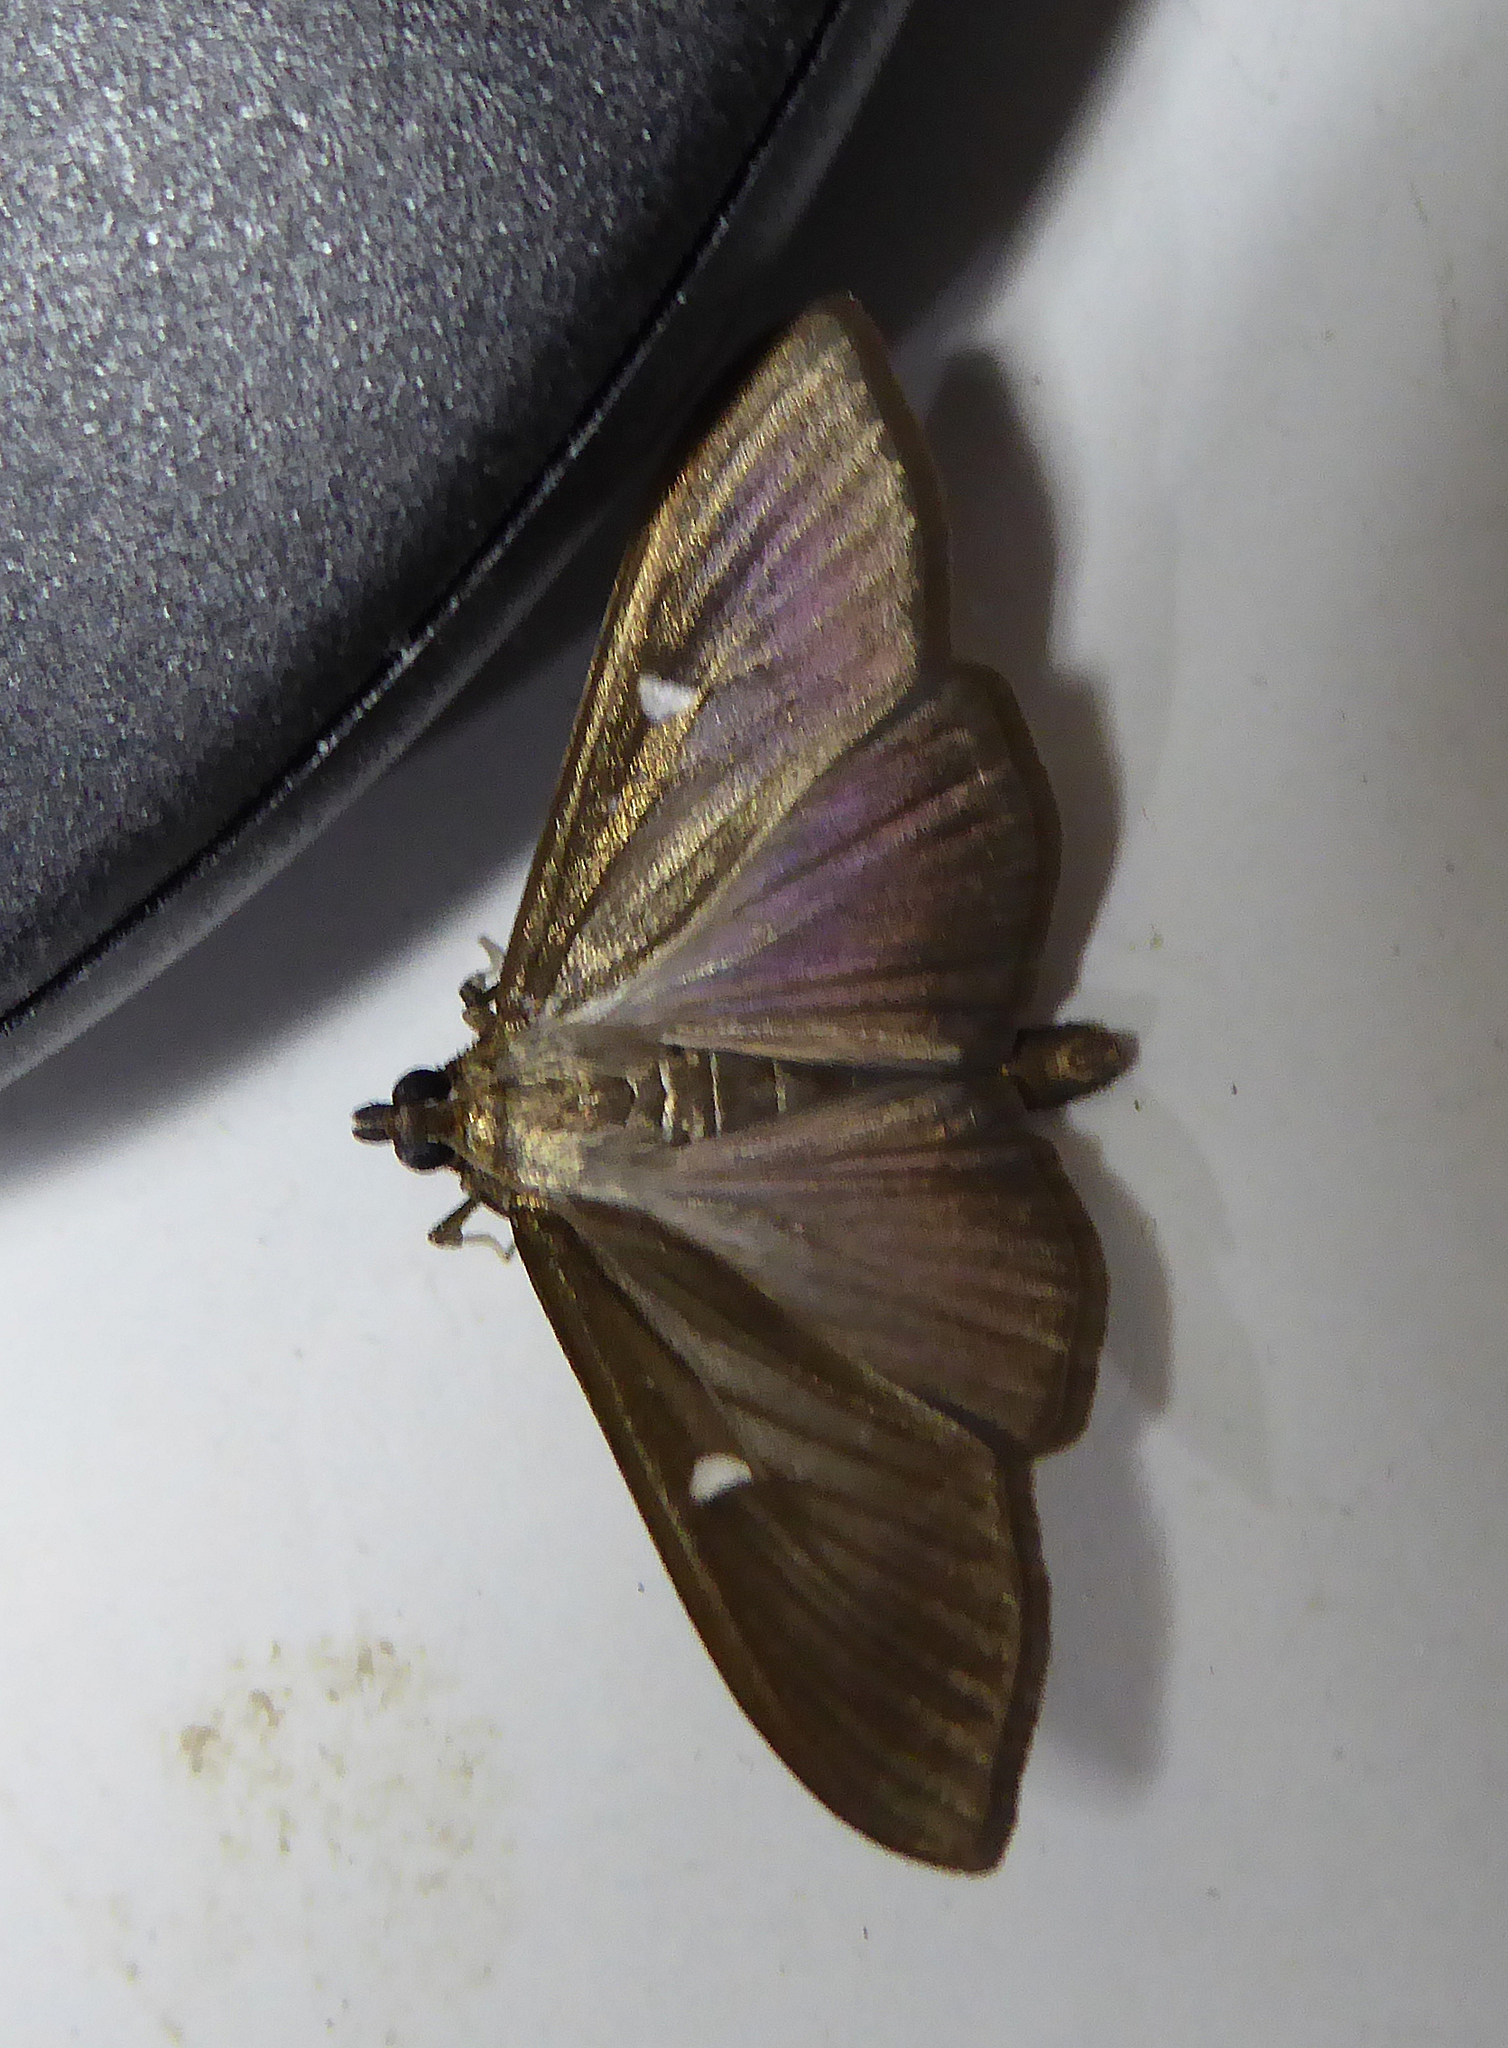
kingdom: Animalia
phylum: Arthropoda
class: Insecta
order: Lepidoptera
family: Crambidae
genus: Cydalima
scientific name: Cydalima perspectalis
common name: Box tree moth
